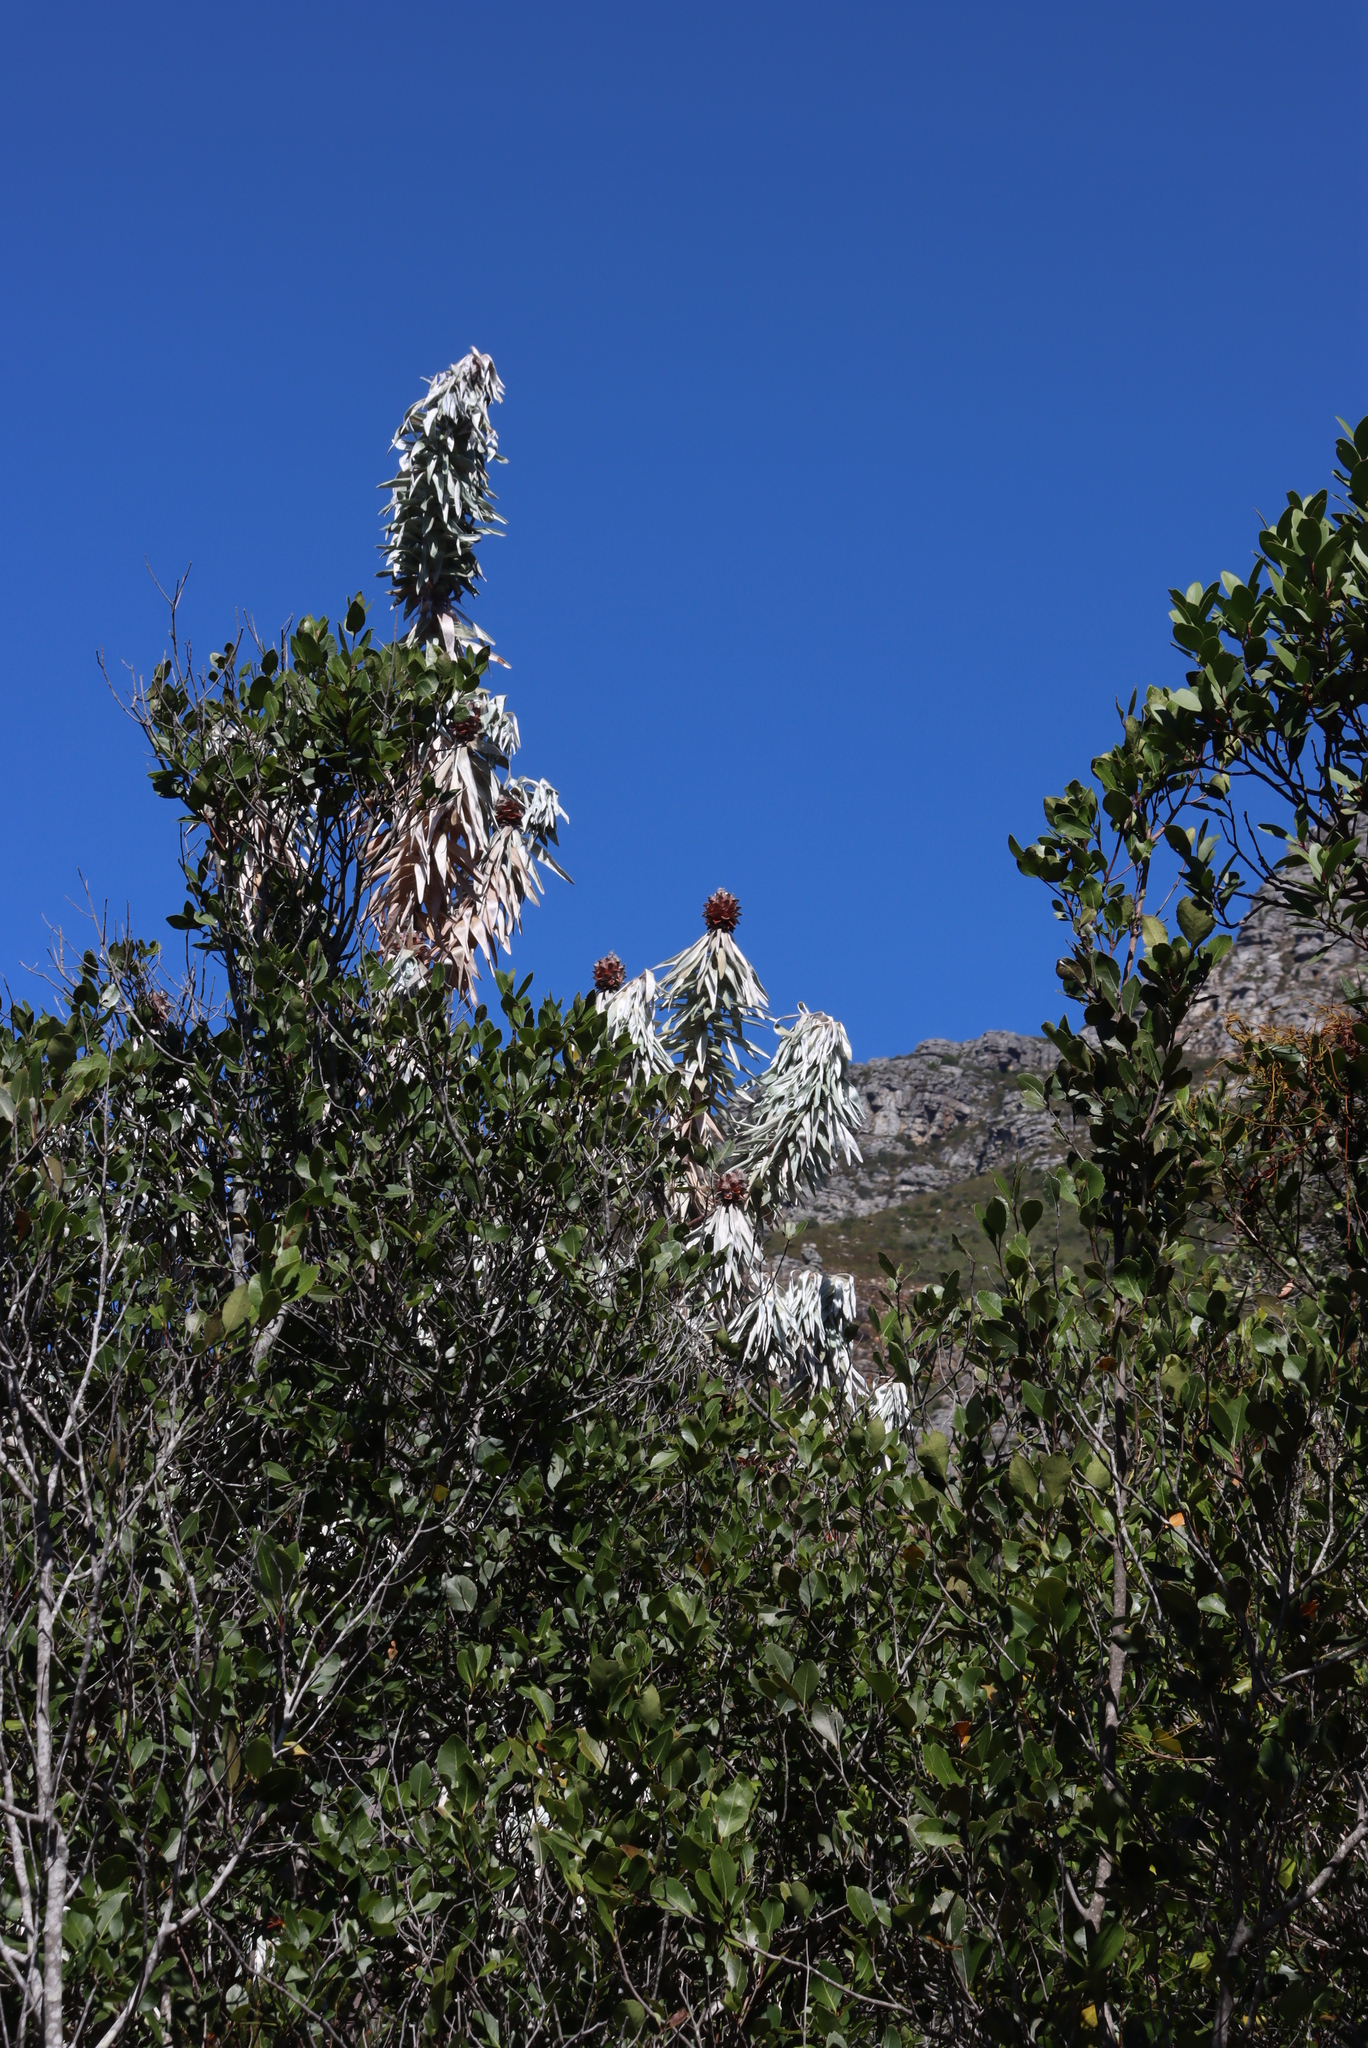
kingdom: Plantae
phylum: Tracheophyta
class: Magnoliopsida
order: Proteales
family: Proteaceae
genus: Leucadendron
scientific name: Leucadendron argenteum
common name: Cape silver tree
